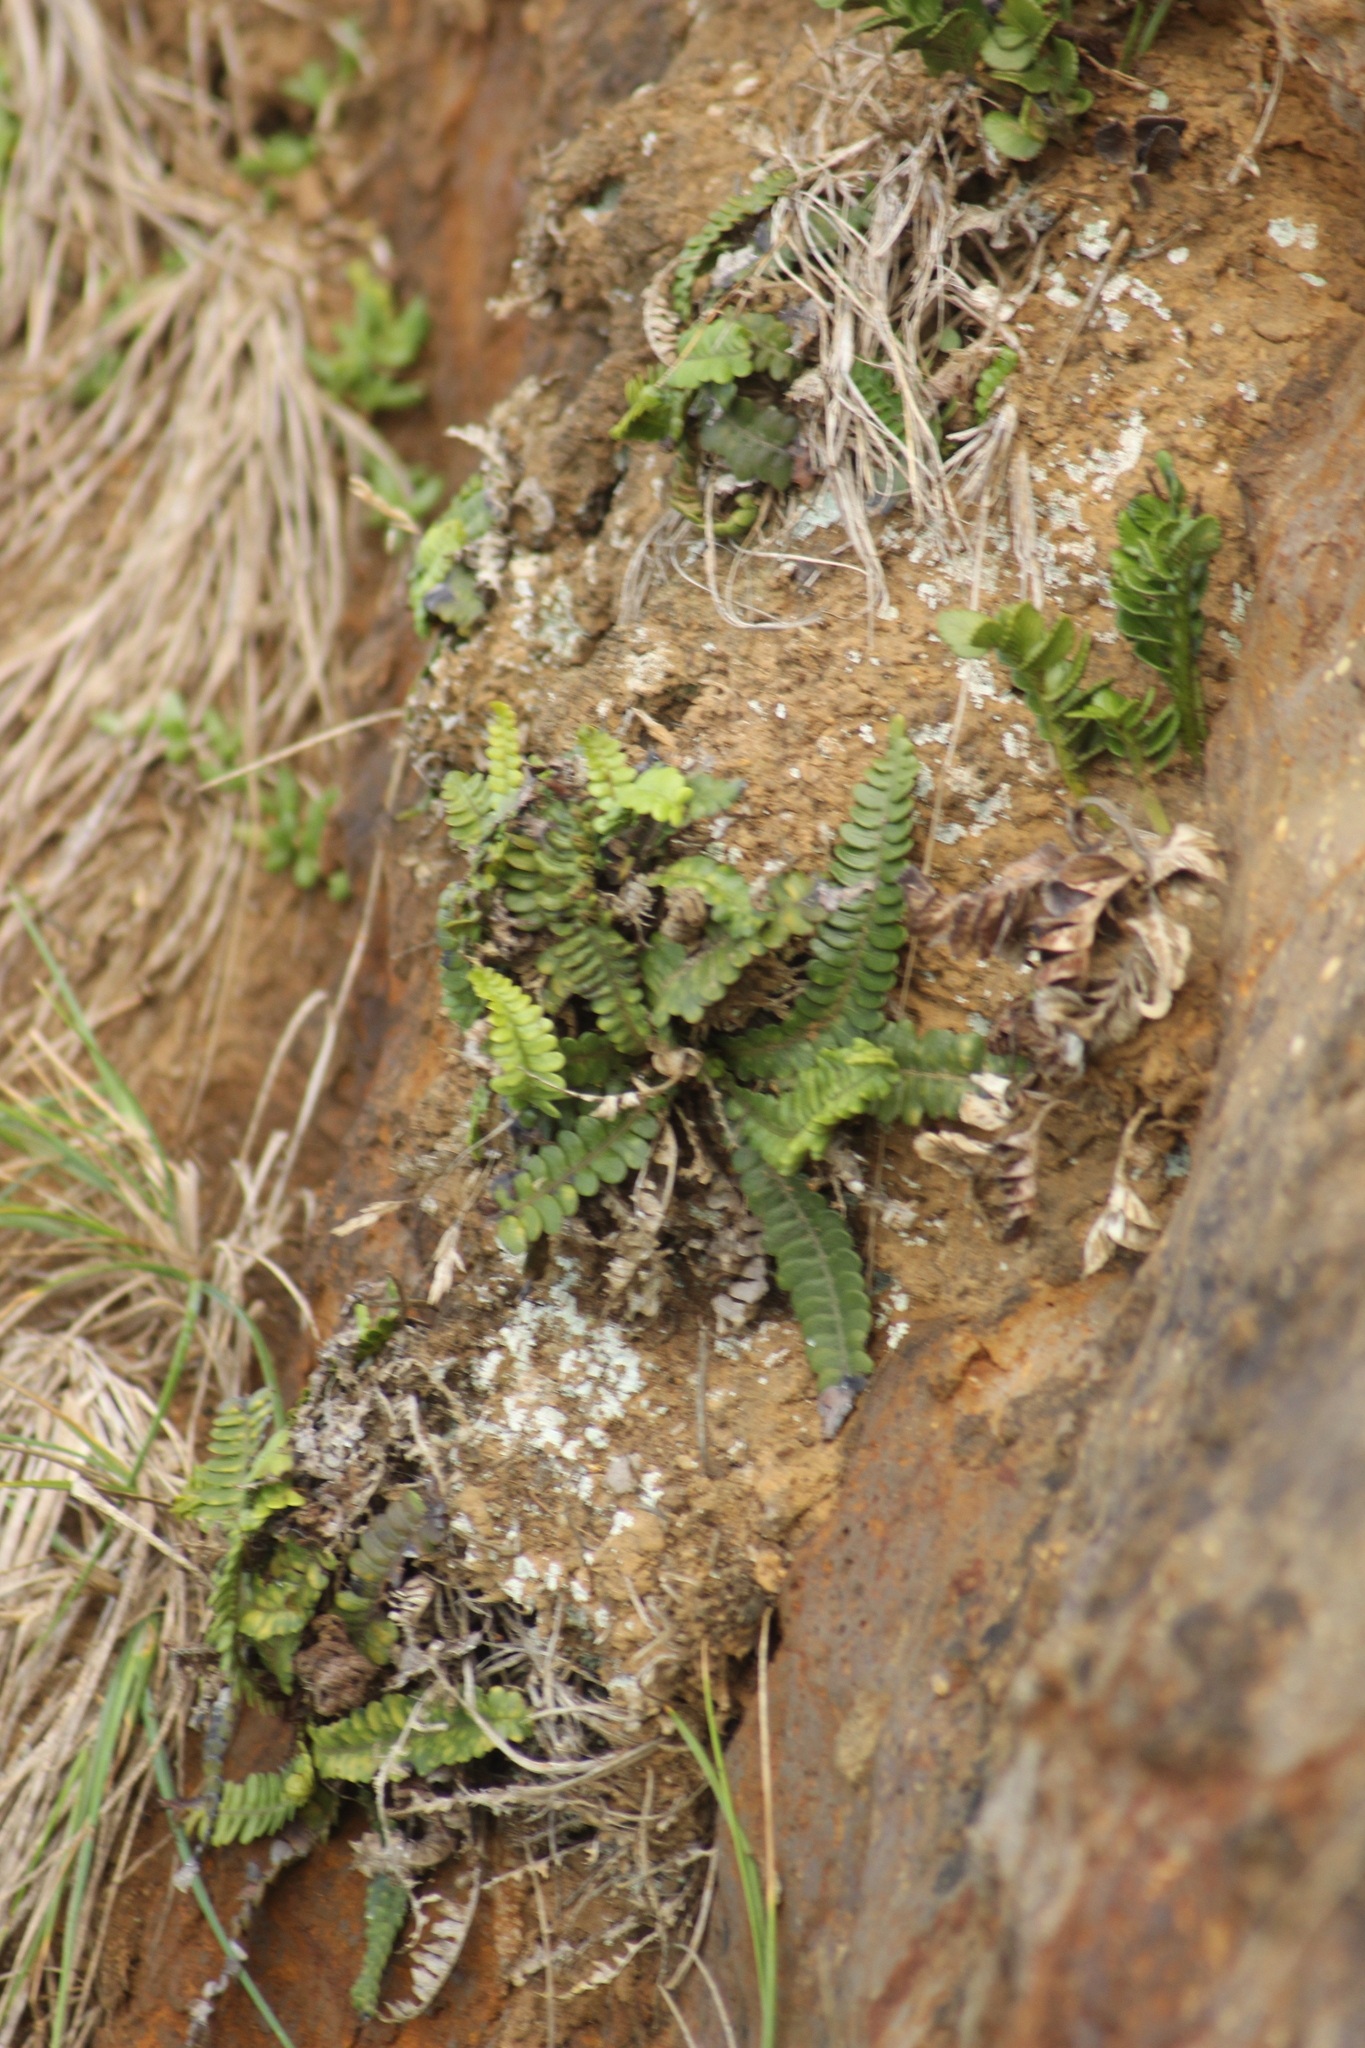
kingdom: Plantae
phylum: Tracheophyta
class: Polypodiopsida
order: Polypodiales
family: Blechnaceae
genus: Austroblechnum
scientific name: Austroblechnum durum
